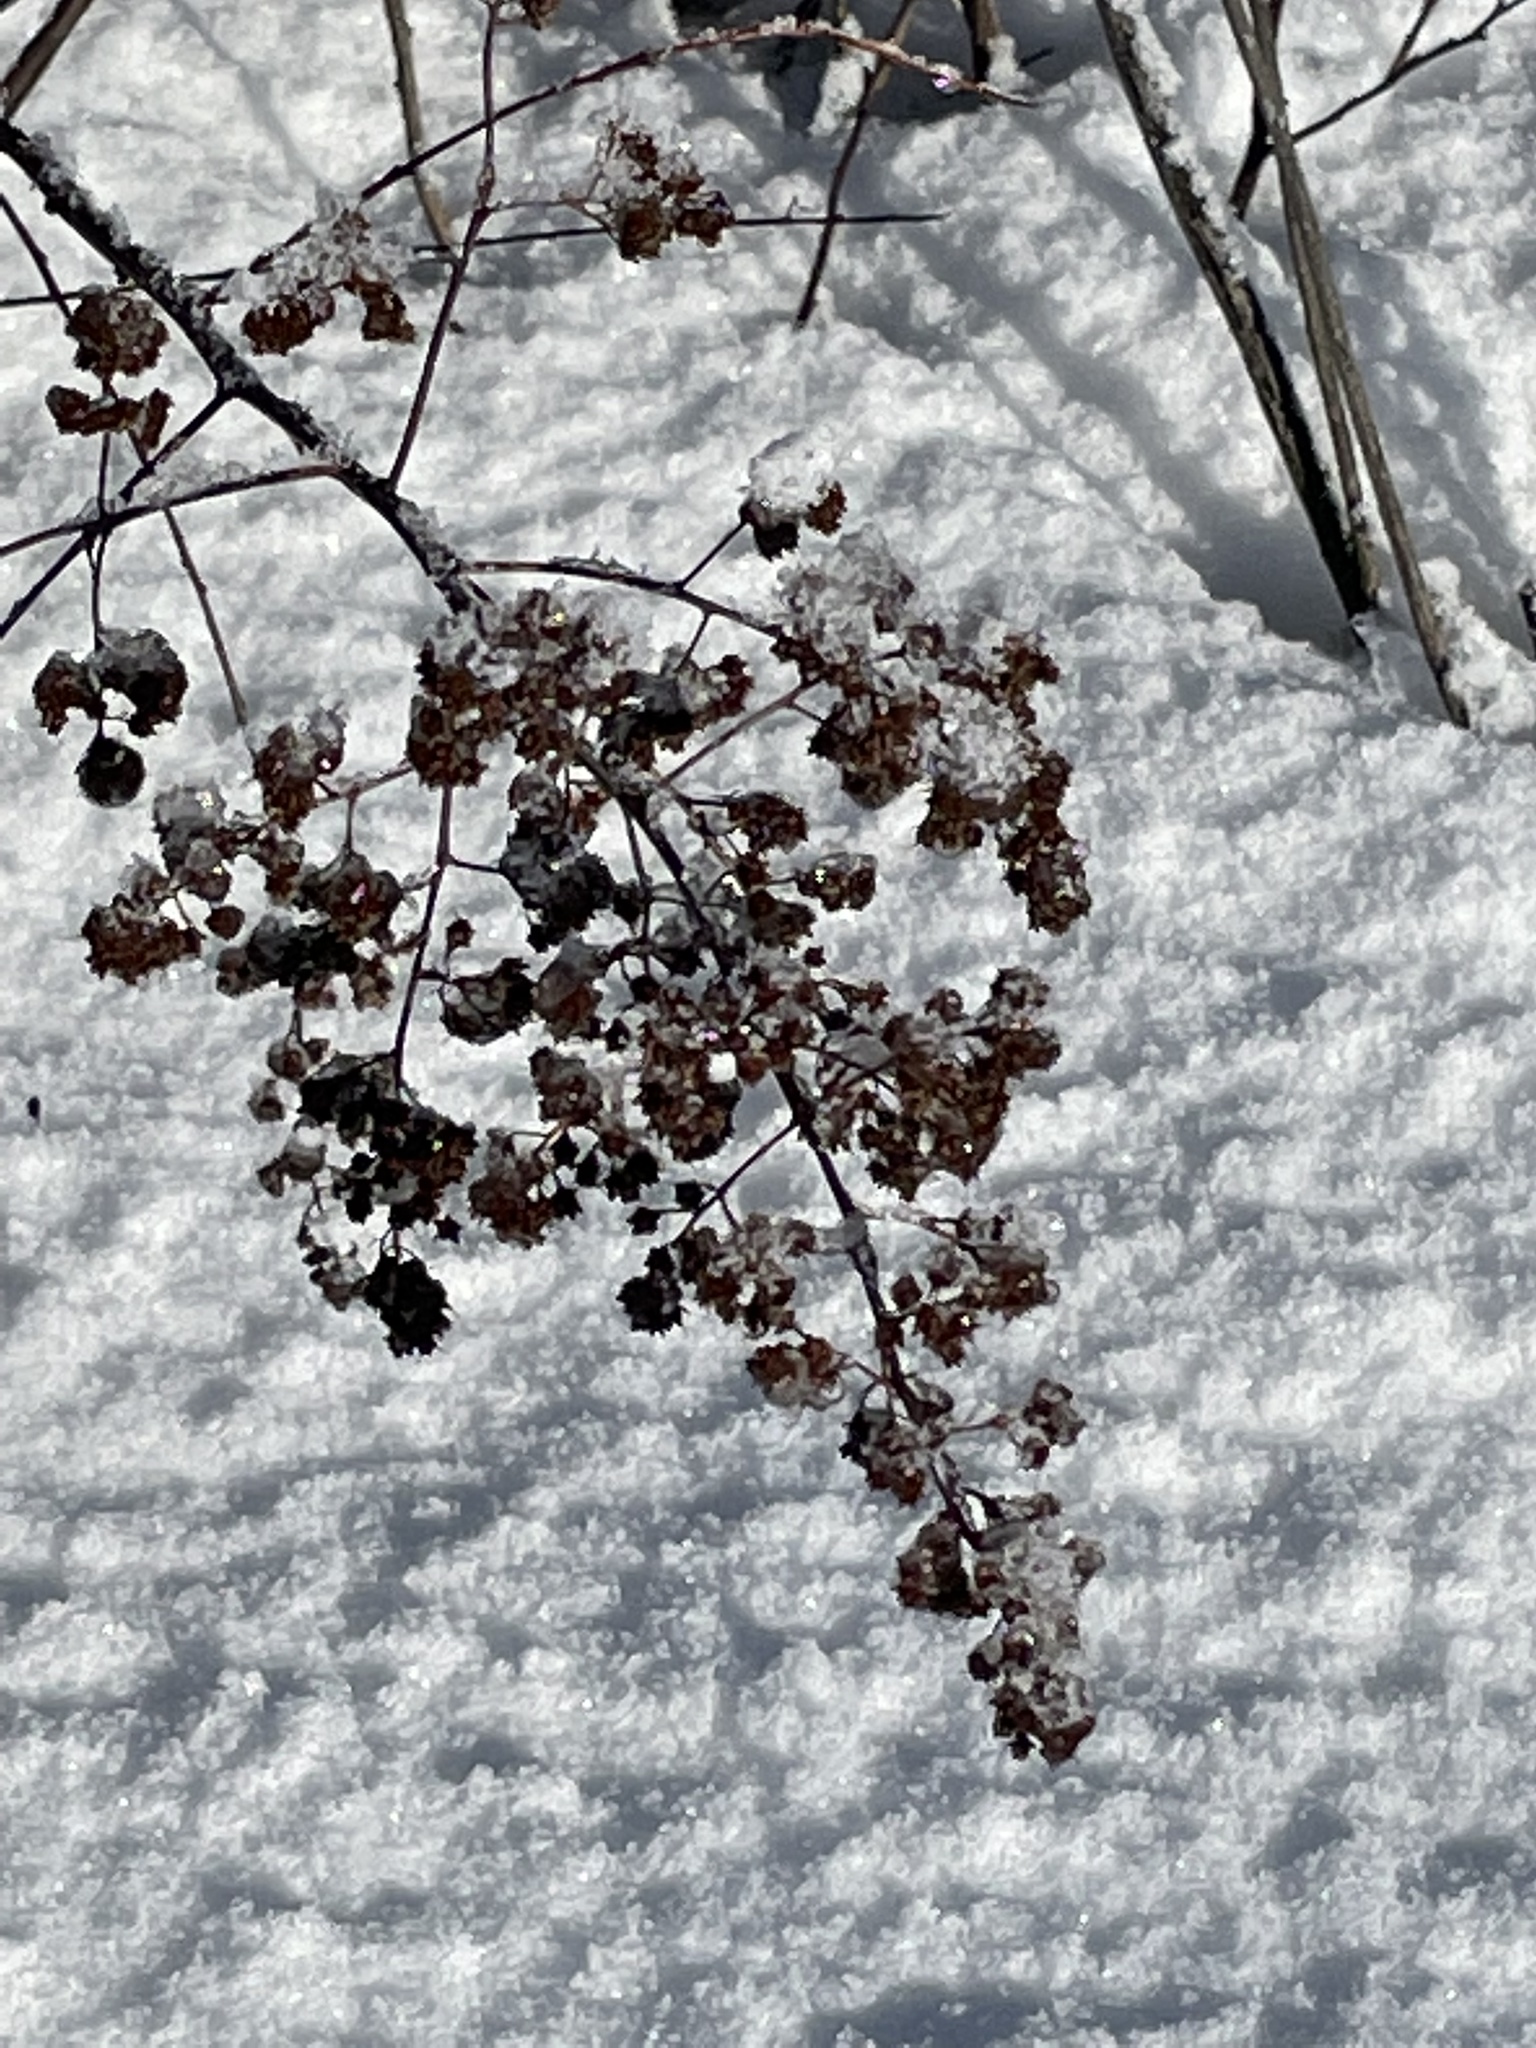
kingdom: Plantae
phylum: Tracheophyta
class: Magnoliopsida
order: Rosales
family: Rosaceae
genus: Spiraea
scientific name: Spiraea alba
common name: Pale bridewort
